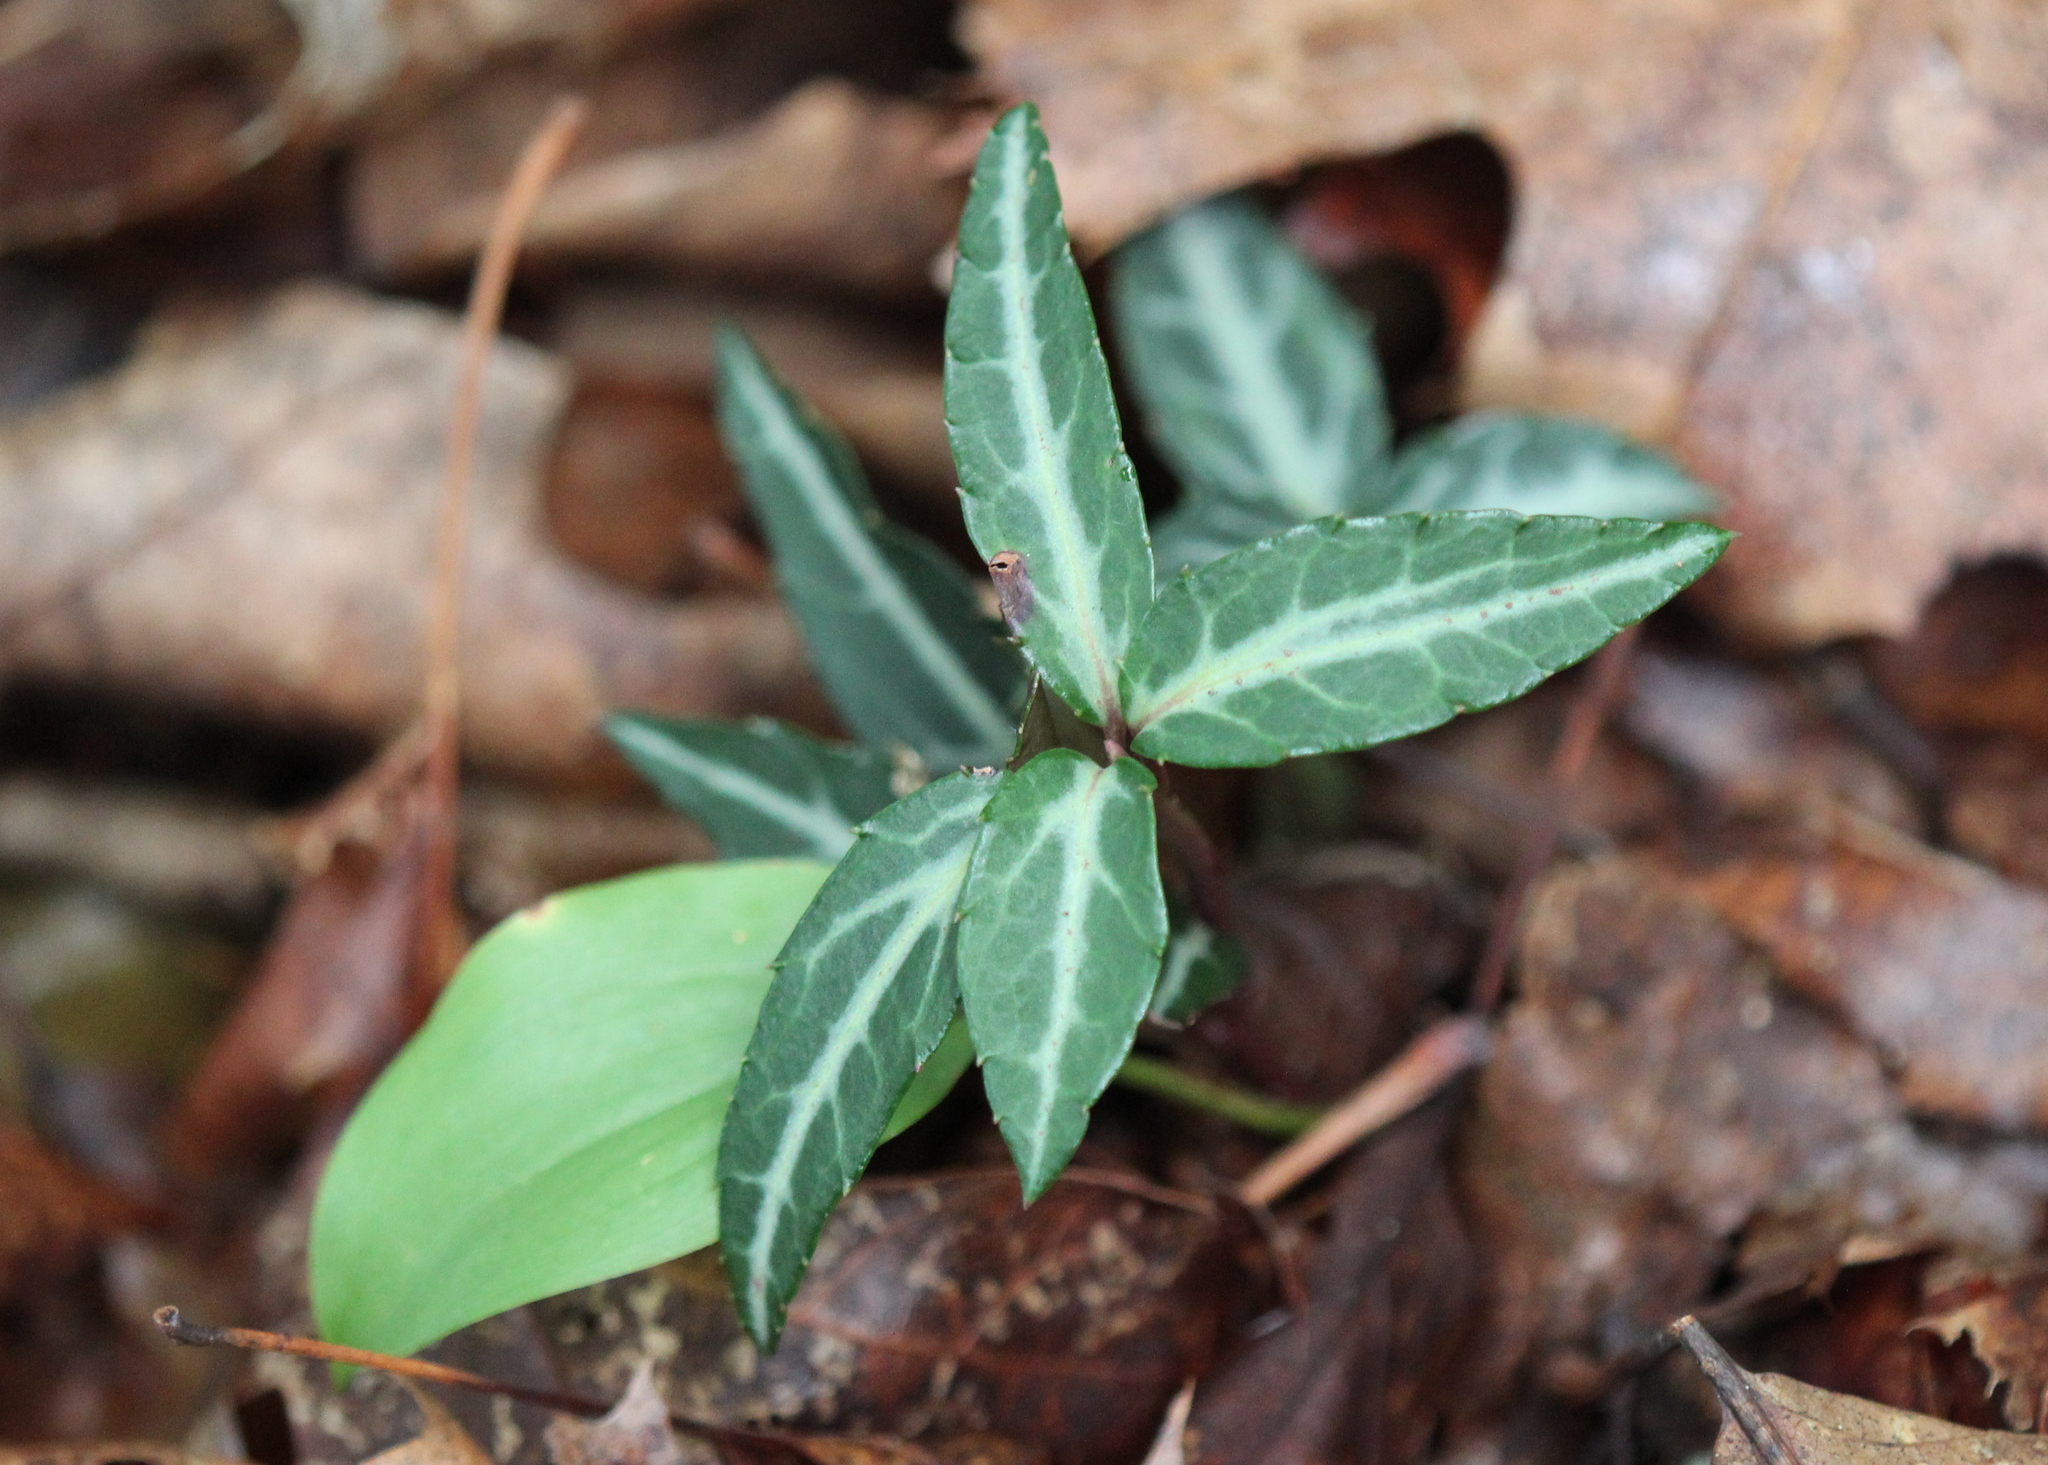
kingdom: Plantae
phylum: Tracheophyta
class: Magnoliopsida
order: Ericales
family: Ericaceae
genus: Chimaphila
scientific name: Chimaphila maculata
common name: Spotted pipsissewa
